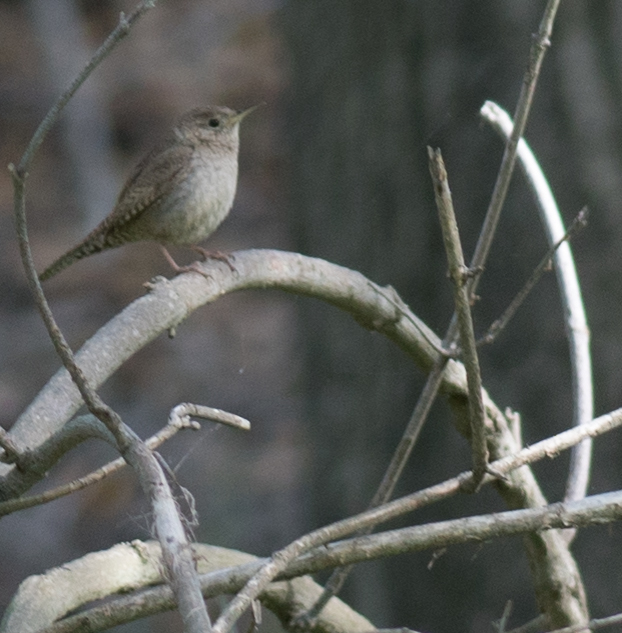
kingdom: Animalia
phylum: Chordata
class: Aves
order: Passeriformes
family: Troglodytidae
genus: Troglodytes
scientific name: Troglodytes aedon
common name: House wren
